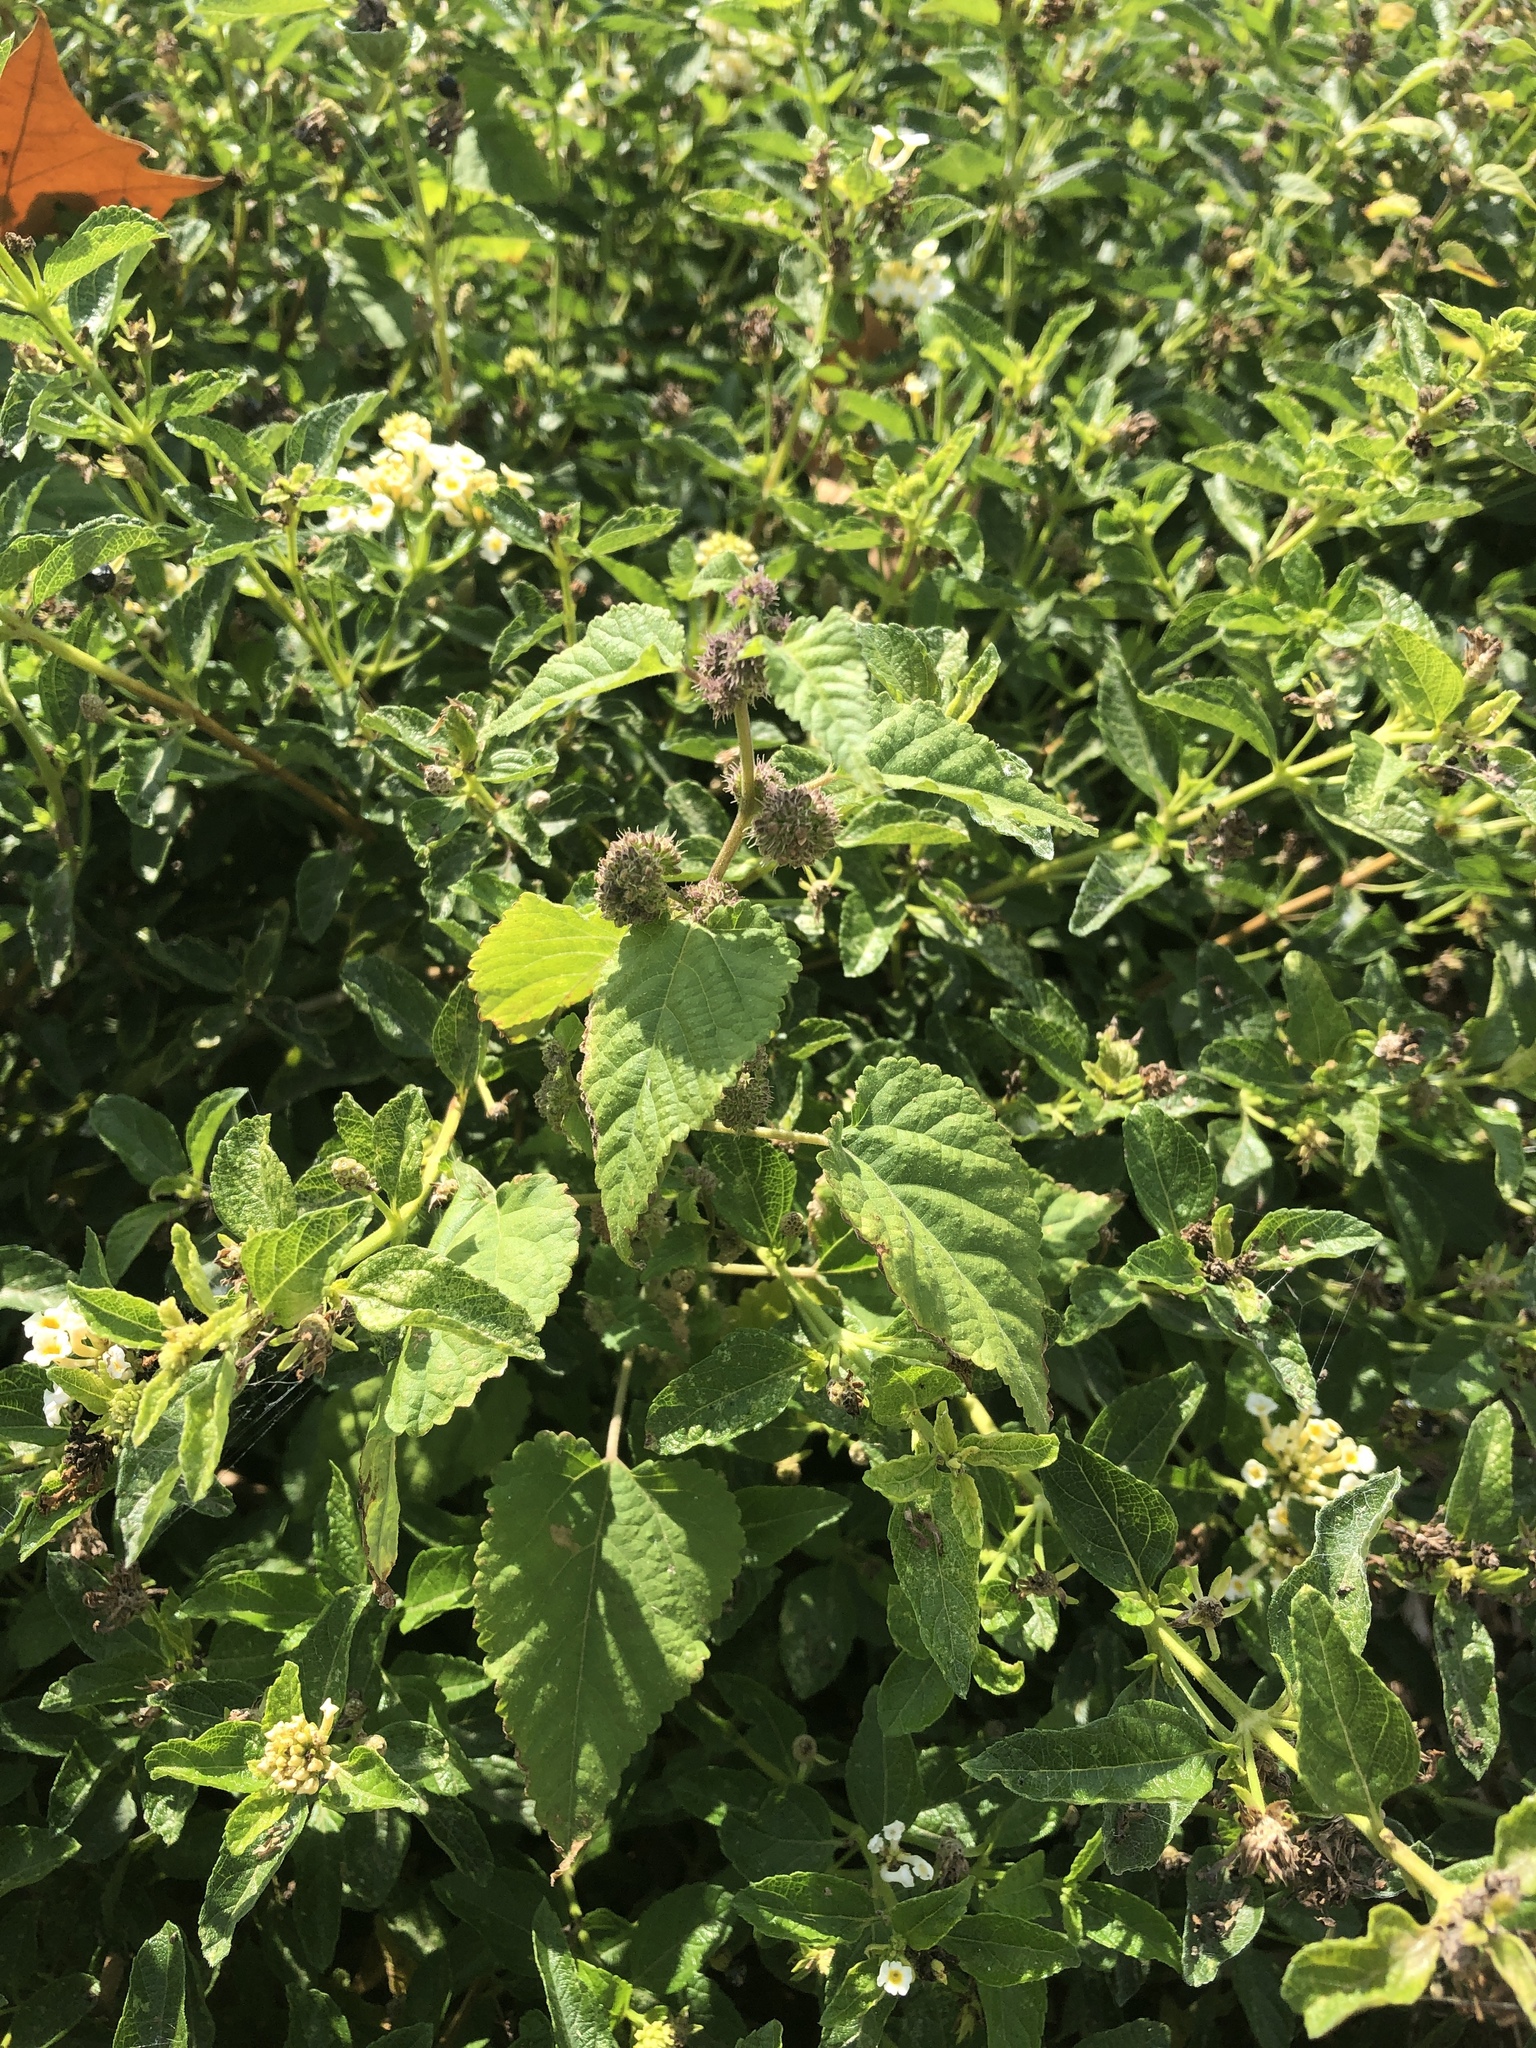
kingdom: Plantae
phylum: Tracheophyta
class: Magnoliopsida
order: Rosales
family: Moraceae
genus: Fatoua
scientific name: Fatoua villosa
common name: Hairy crabweed
